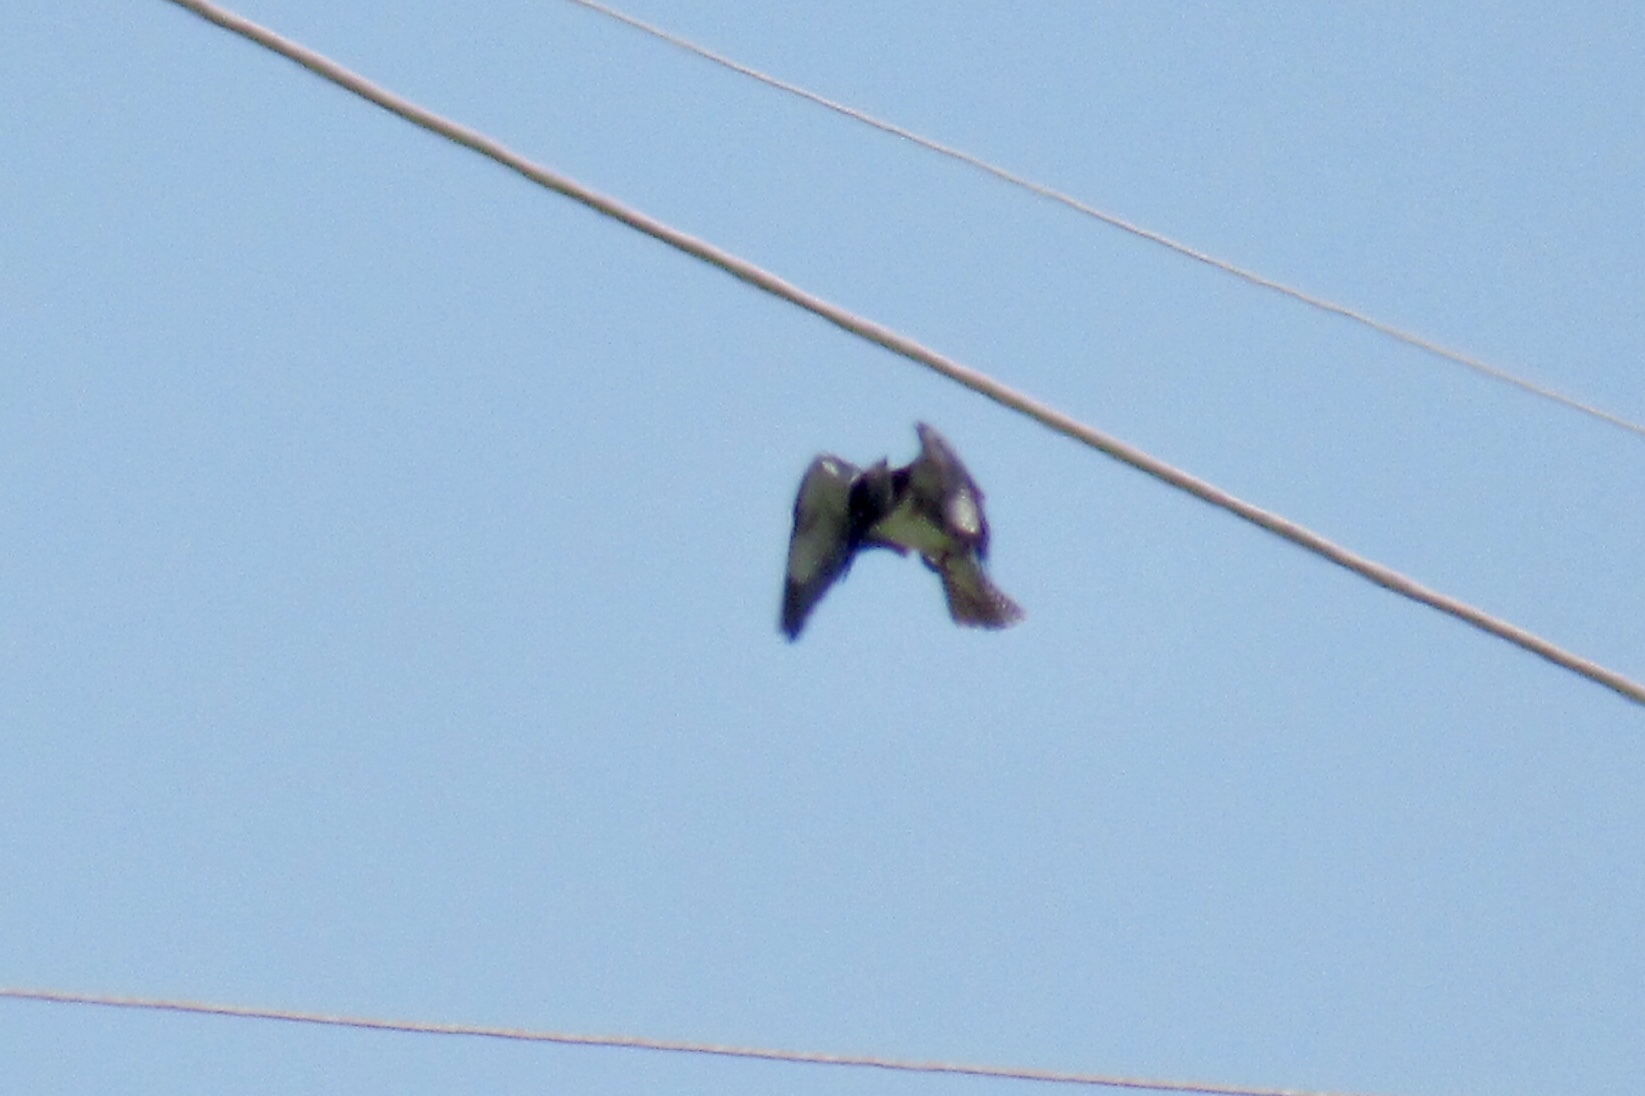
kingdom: Animalia
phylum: Chordata
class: Aves
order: Coraciiformes
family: Alcedinidae
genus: Megaceryle
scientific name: Megaceryle alcyon
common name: Belted kingfisher
